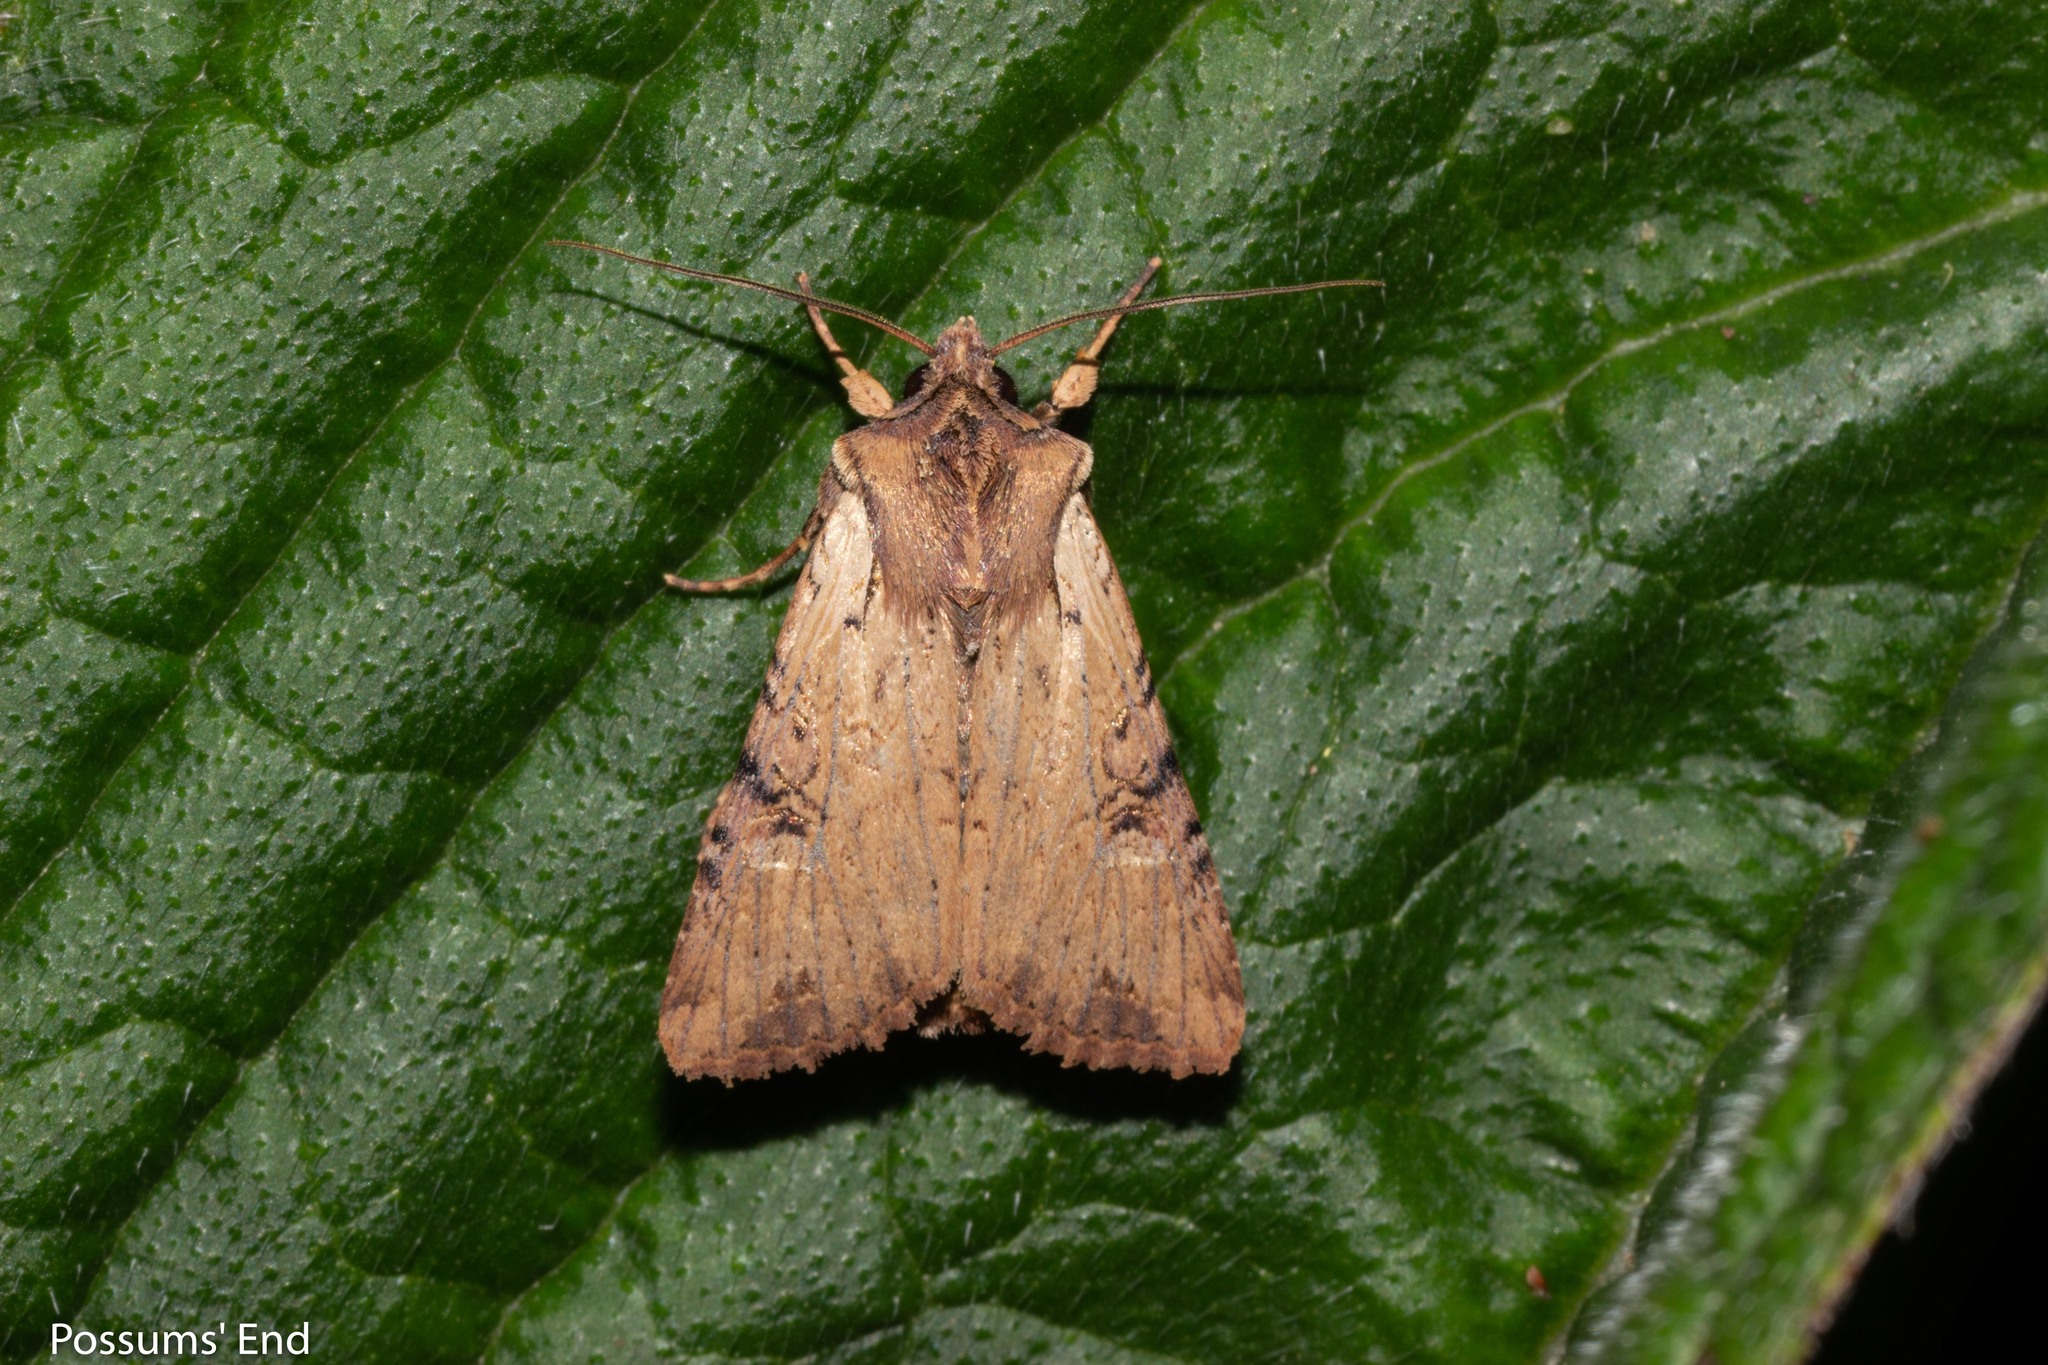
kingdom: Animalia
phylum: Arthropoda
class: Insecta
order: Lepidoptera
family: Noctuidae
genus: Ichneutica
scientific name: Ichneutica omoplaca
